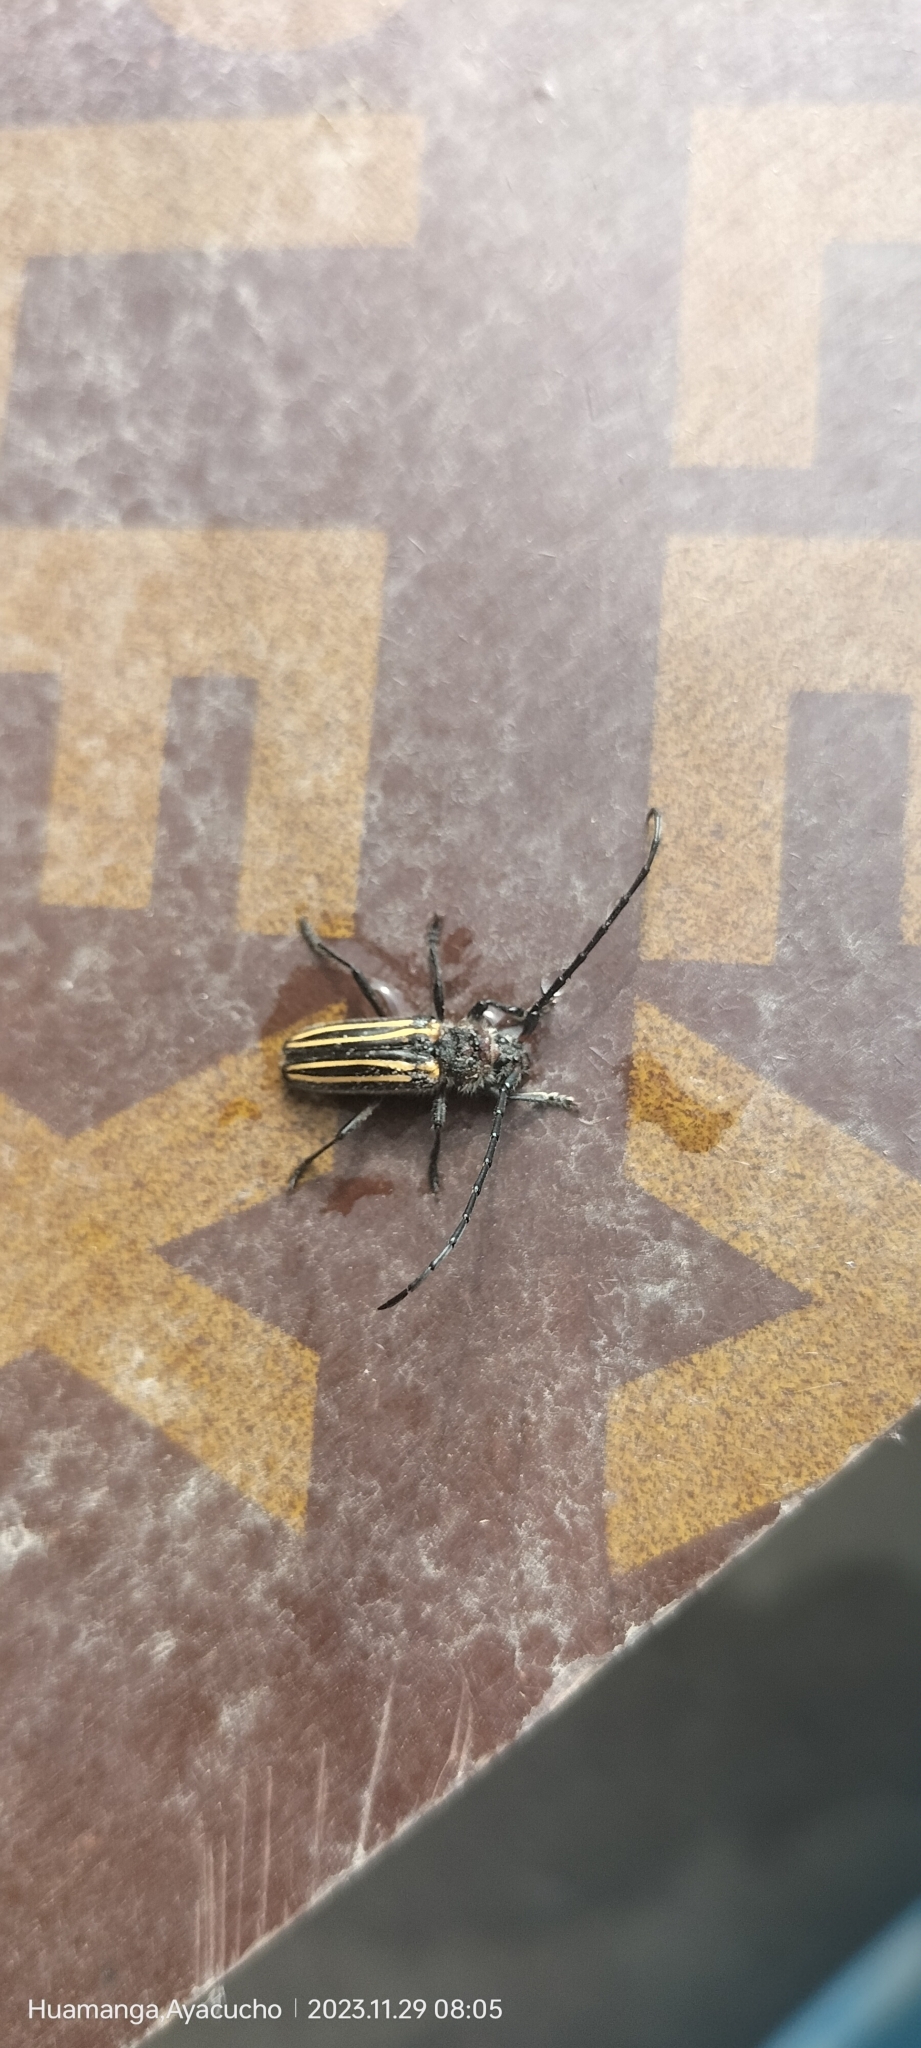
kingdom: Animalia
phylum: Arthropoda
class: Insecta
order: Coleoptera
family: Cerambycidae
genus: Eriocharis
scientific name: Eriocharis devestivus
